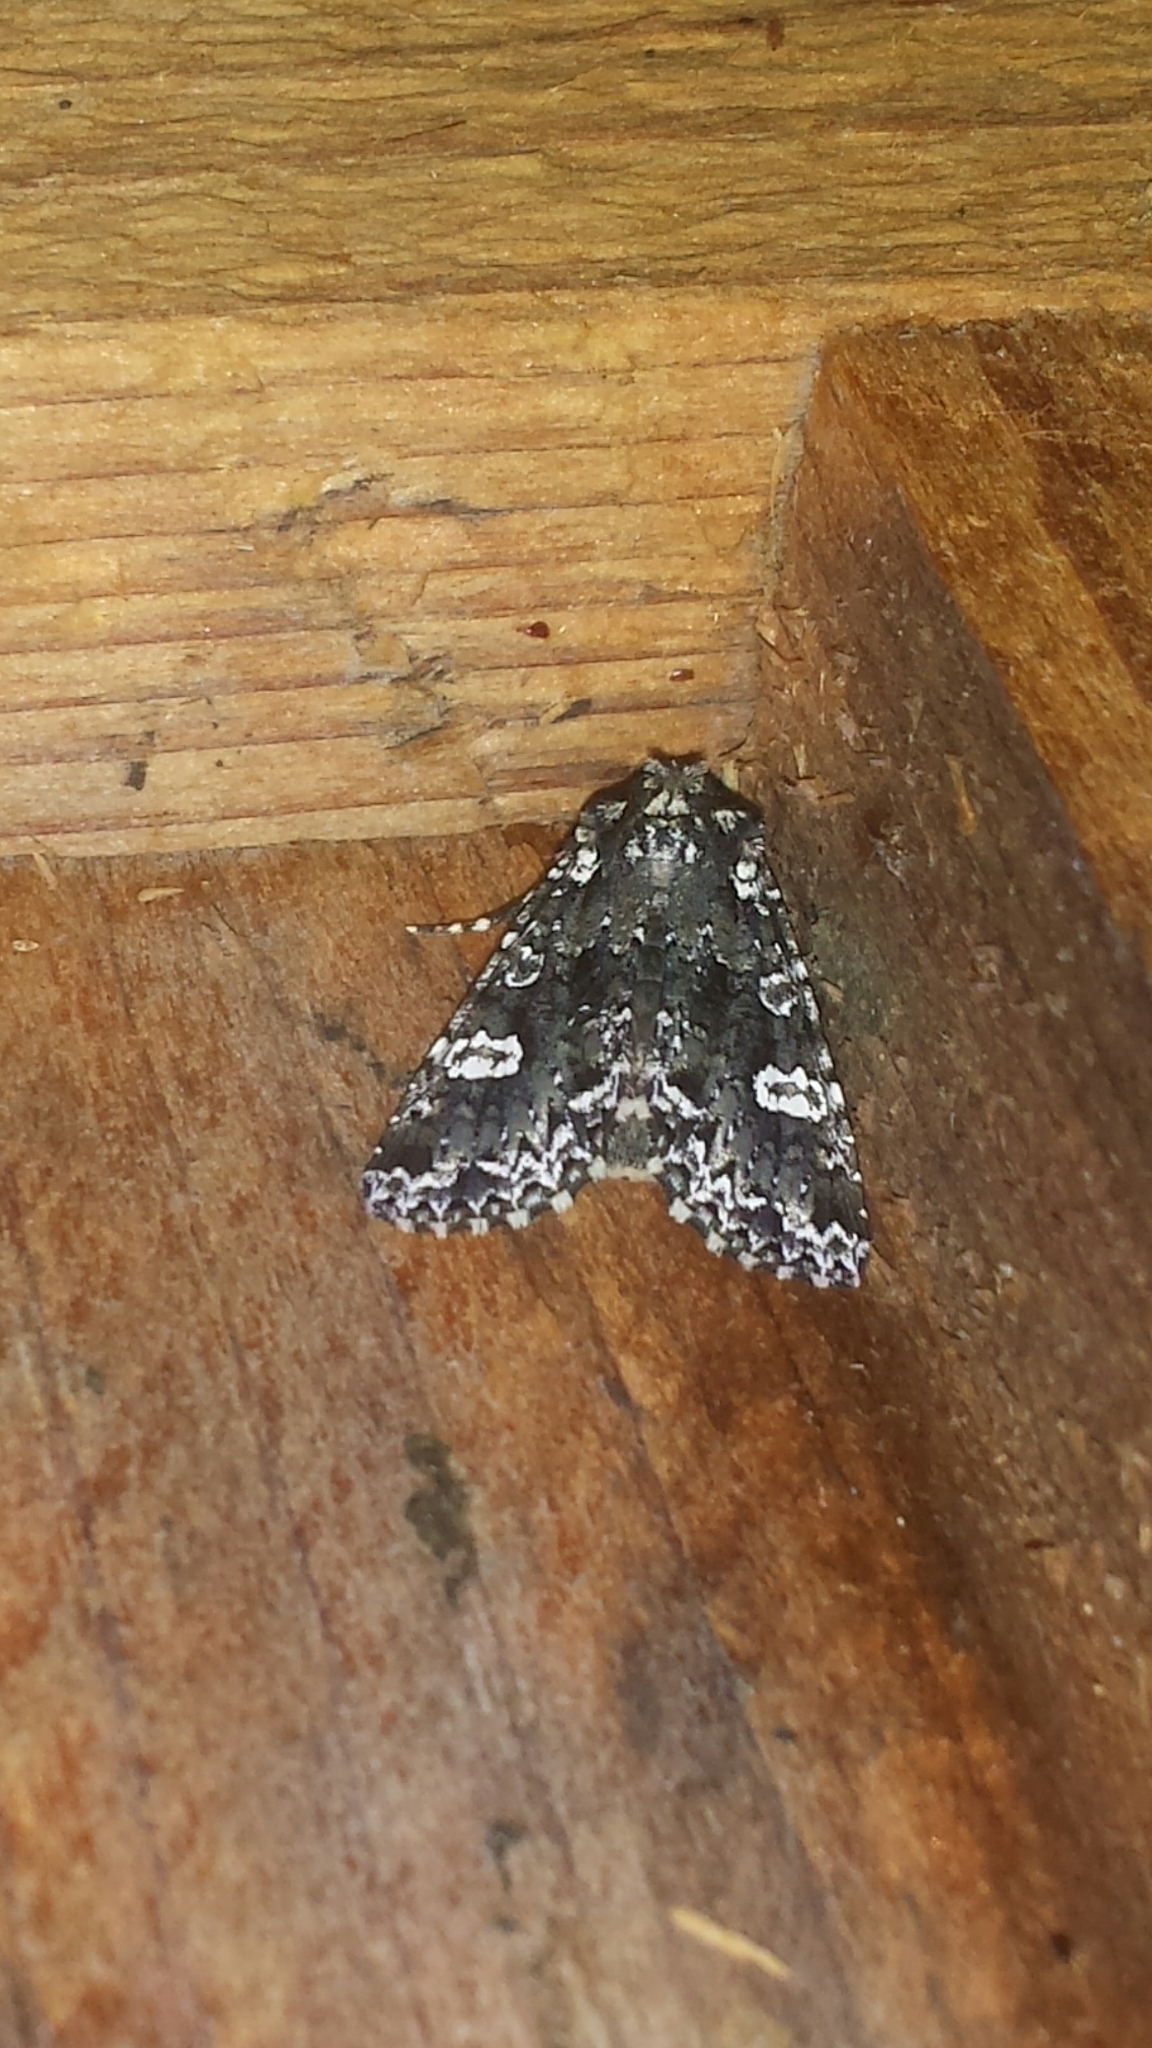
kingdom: Animalia
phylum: Arthropoda
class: Insecta
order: Lepidoptera
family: Noctuidae
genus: Melanchra
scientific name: Melanchra adjuncta
